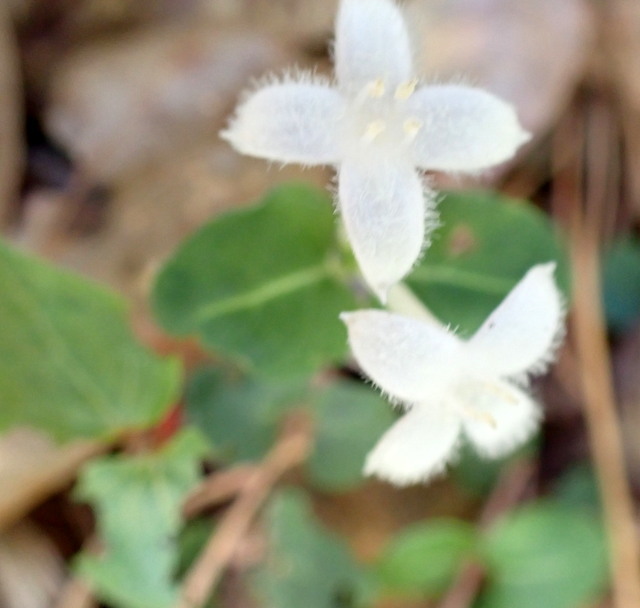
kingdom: Plantae
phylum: Tracheophyta
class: Magnoliopsida
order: Gentianales
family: Rubiaceae
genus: Mitchella
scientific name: Mitchella repens
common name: Partridge-berry
